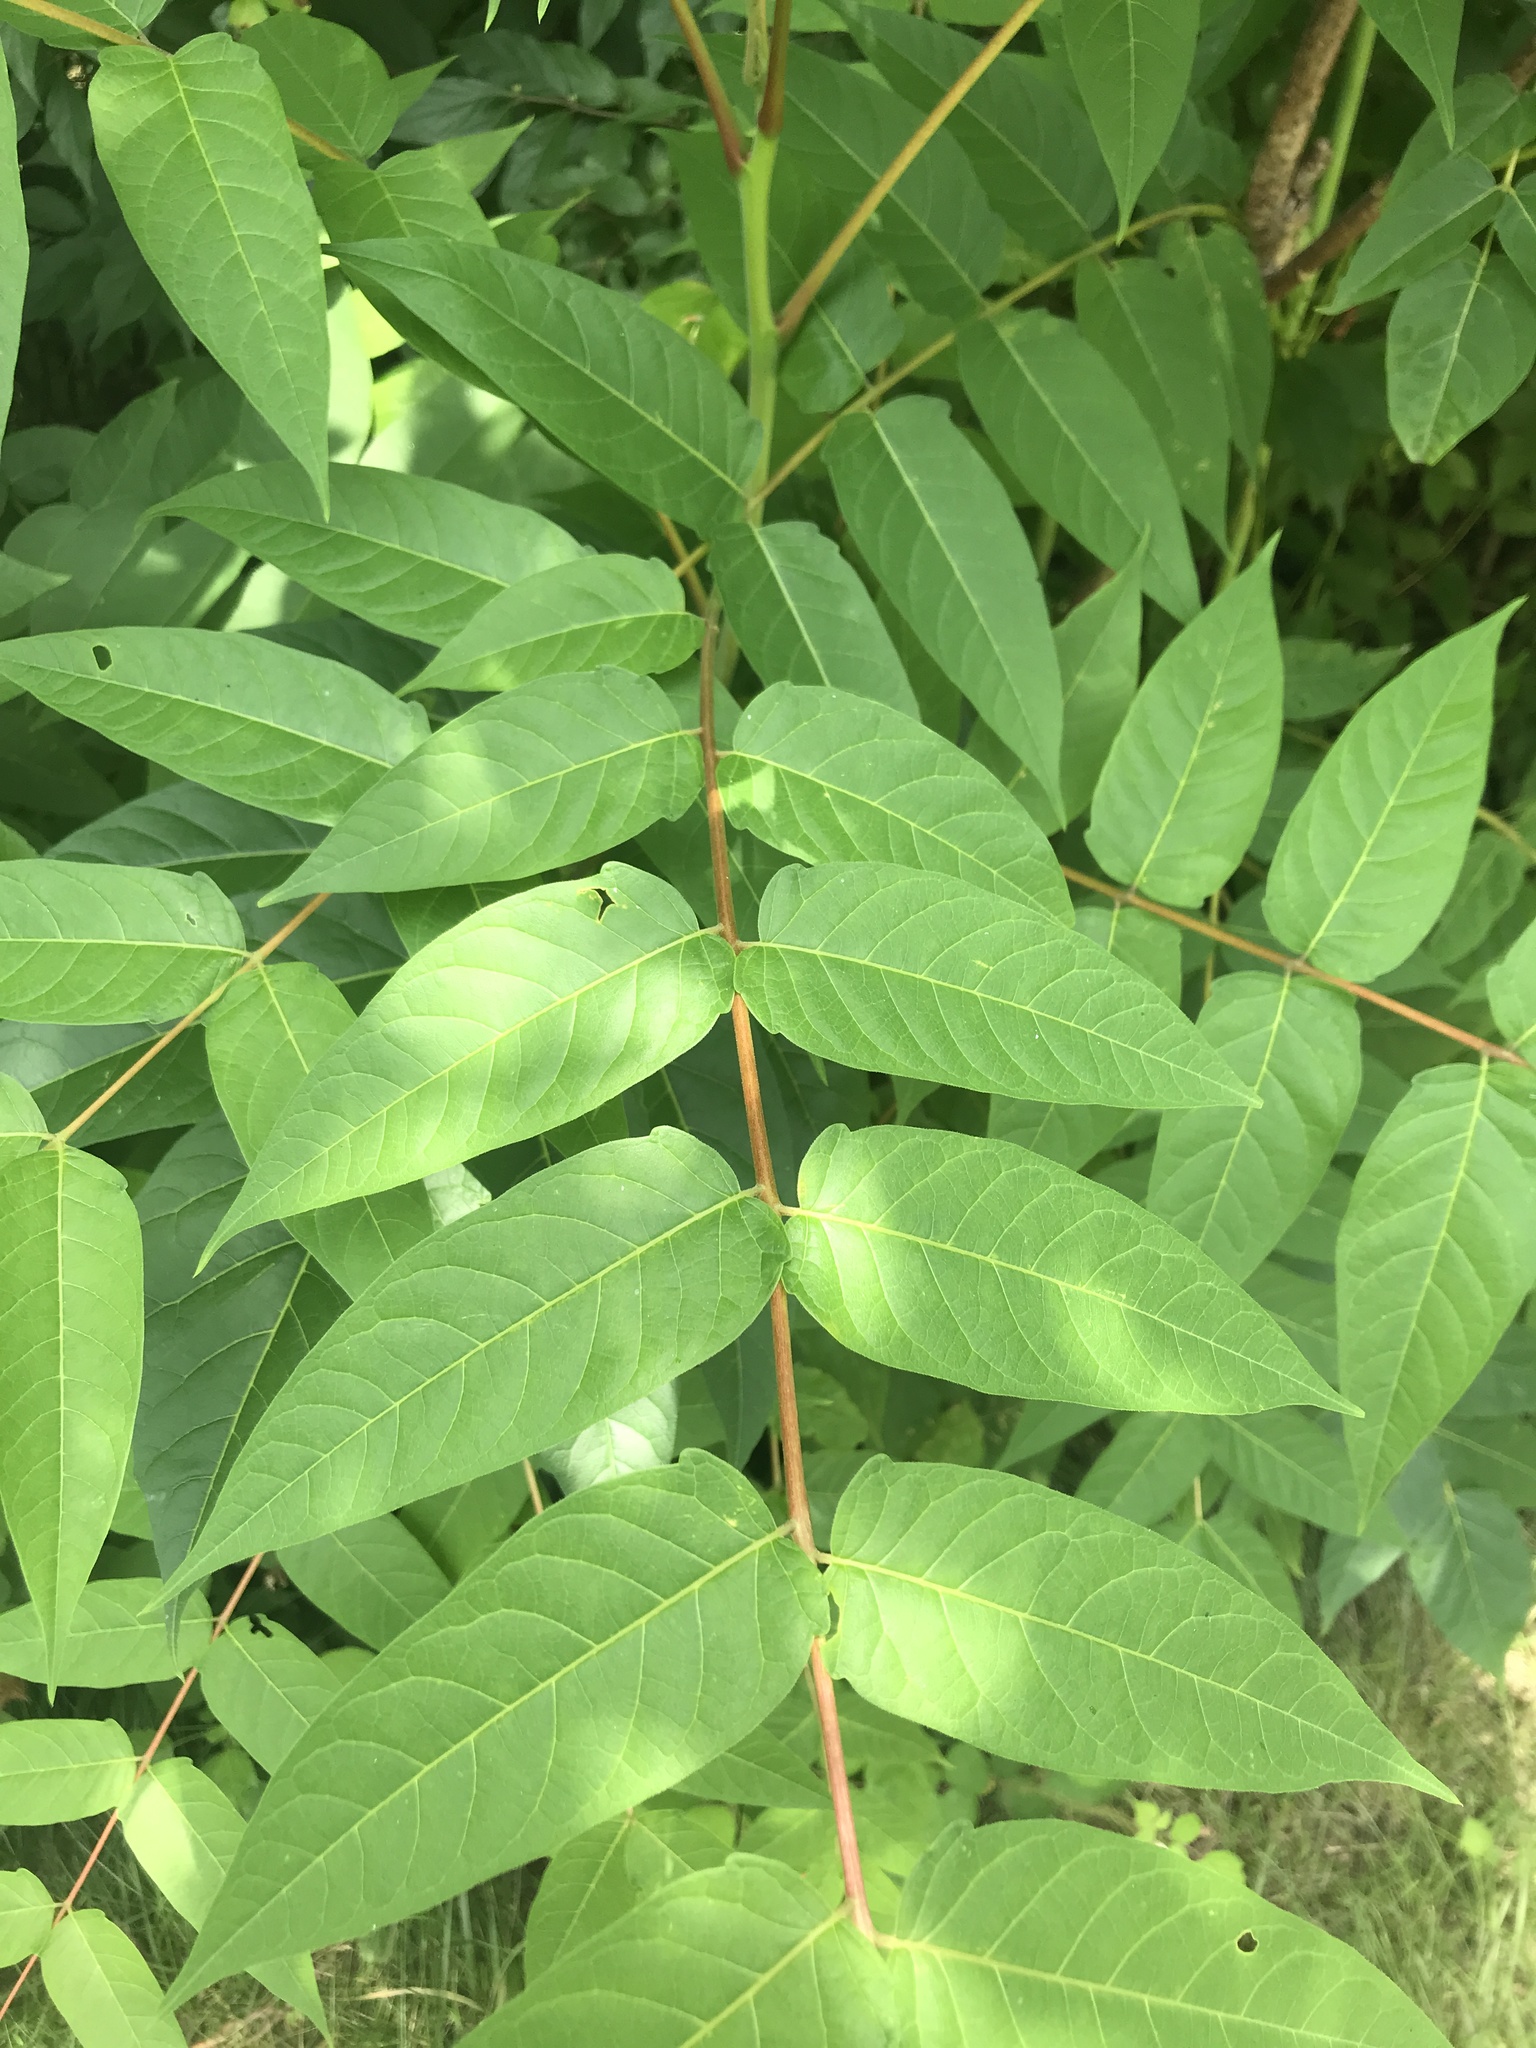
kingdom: Plantae
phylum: Tracheophyta
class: Magnoliopsida
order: Sapindales
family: Simaroubaceae
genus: Ailanthus
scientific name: Ailanthus altissima
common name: Tree-of-heaven
